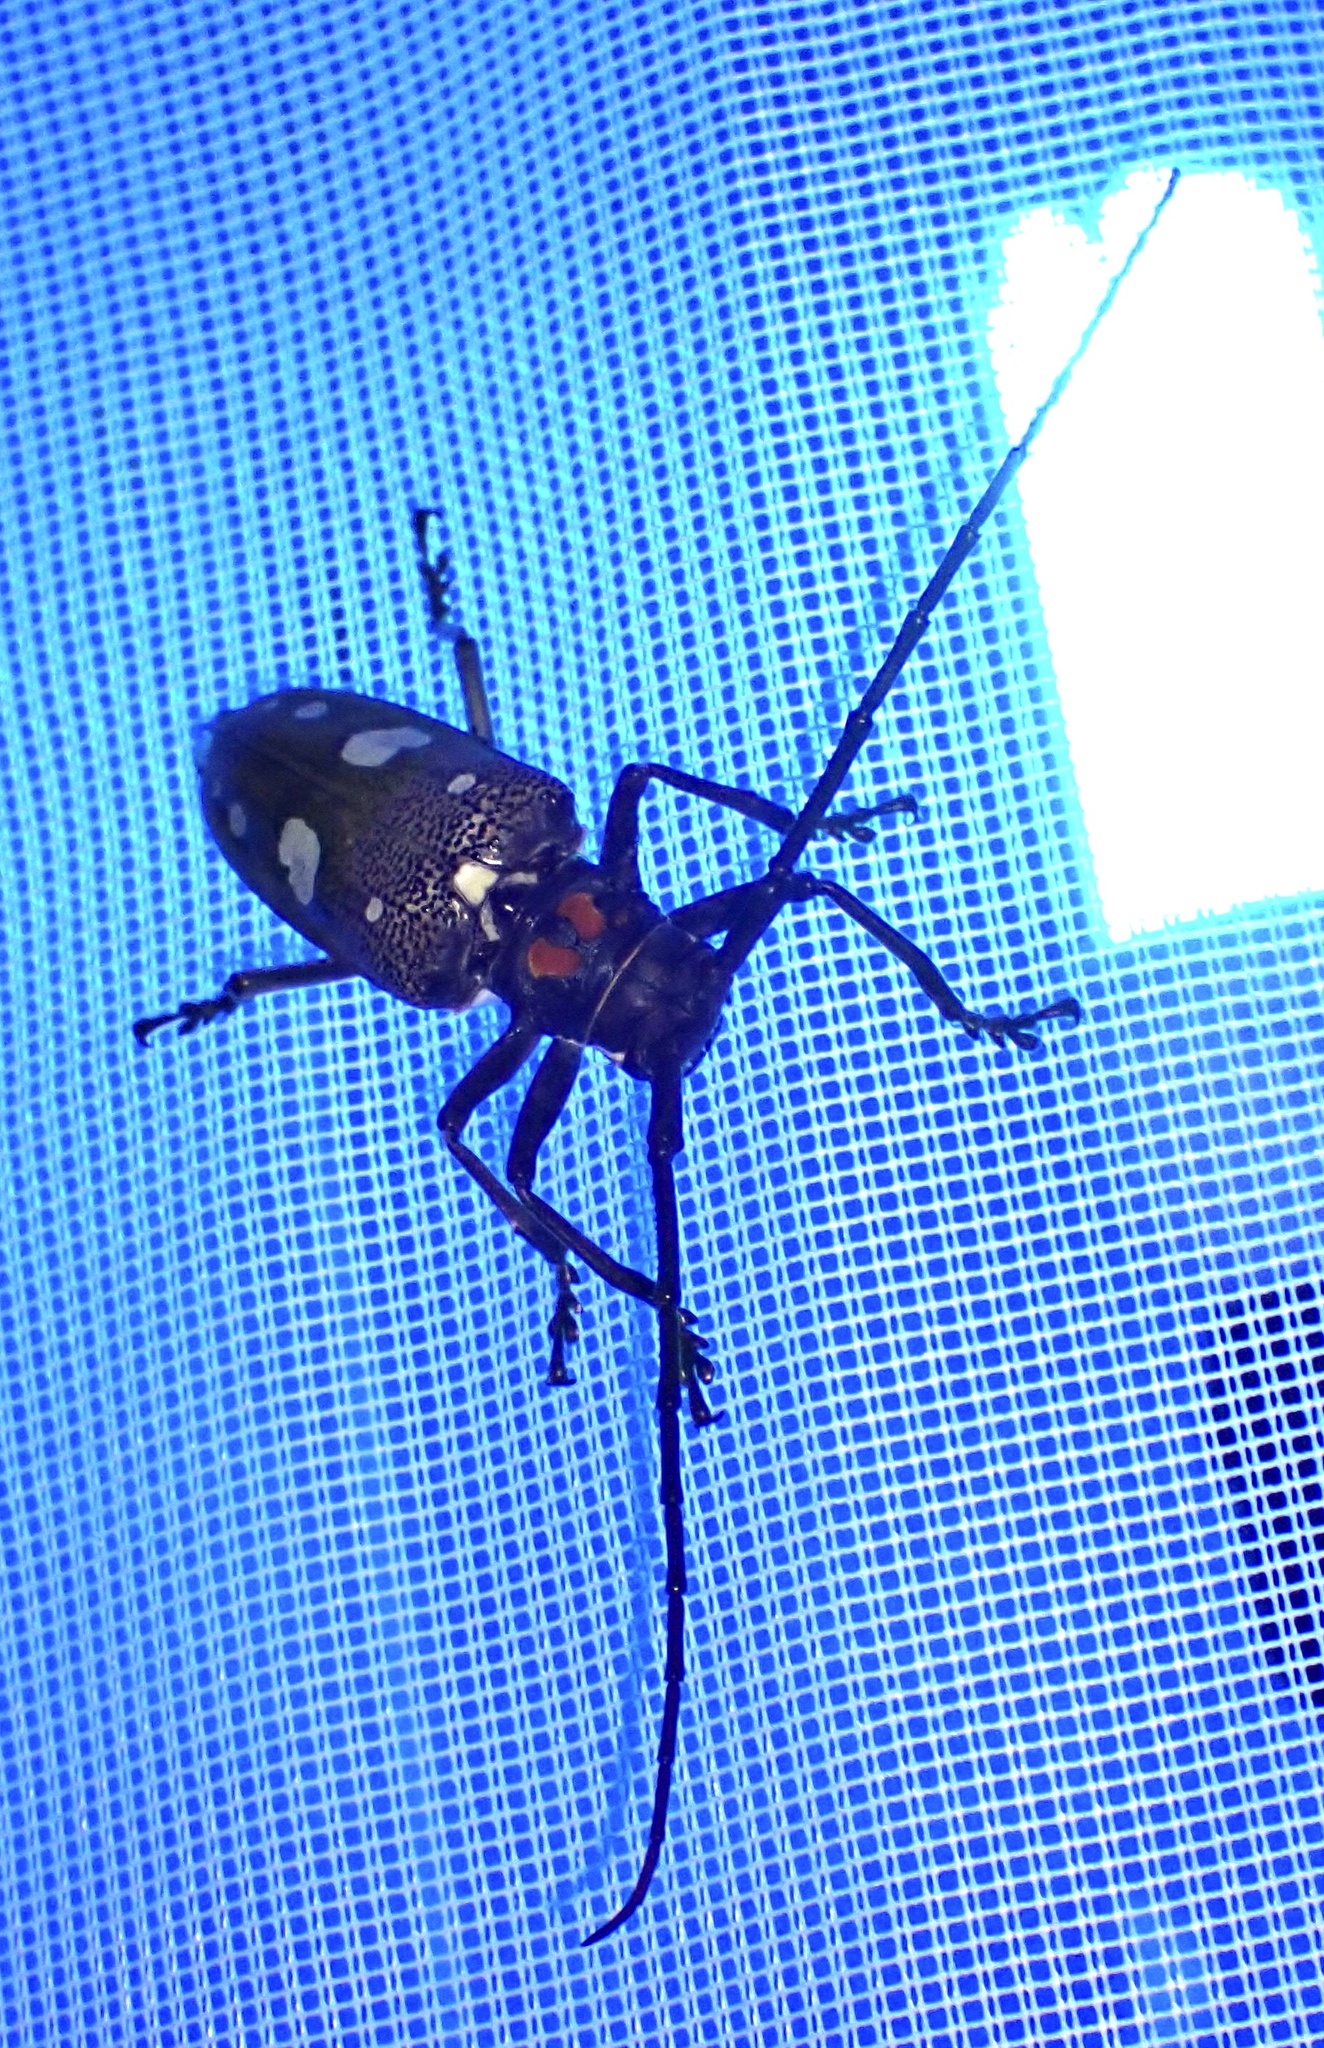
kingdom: Animalia
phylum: Arthropoda
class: Insecta
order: Coleoptera
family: Cerambycidae
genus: Batocera
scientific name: Batocera celebiana
